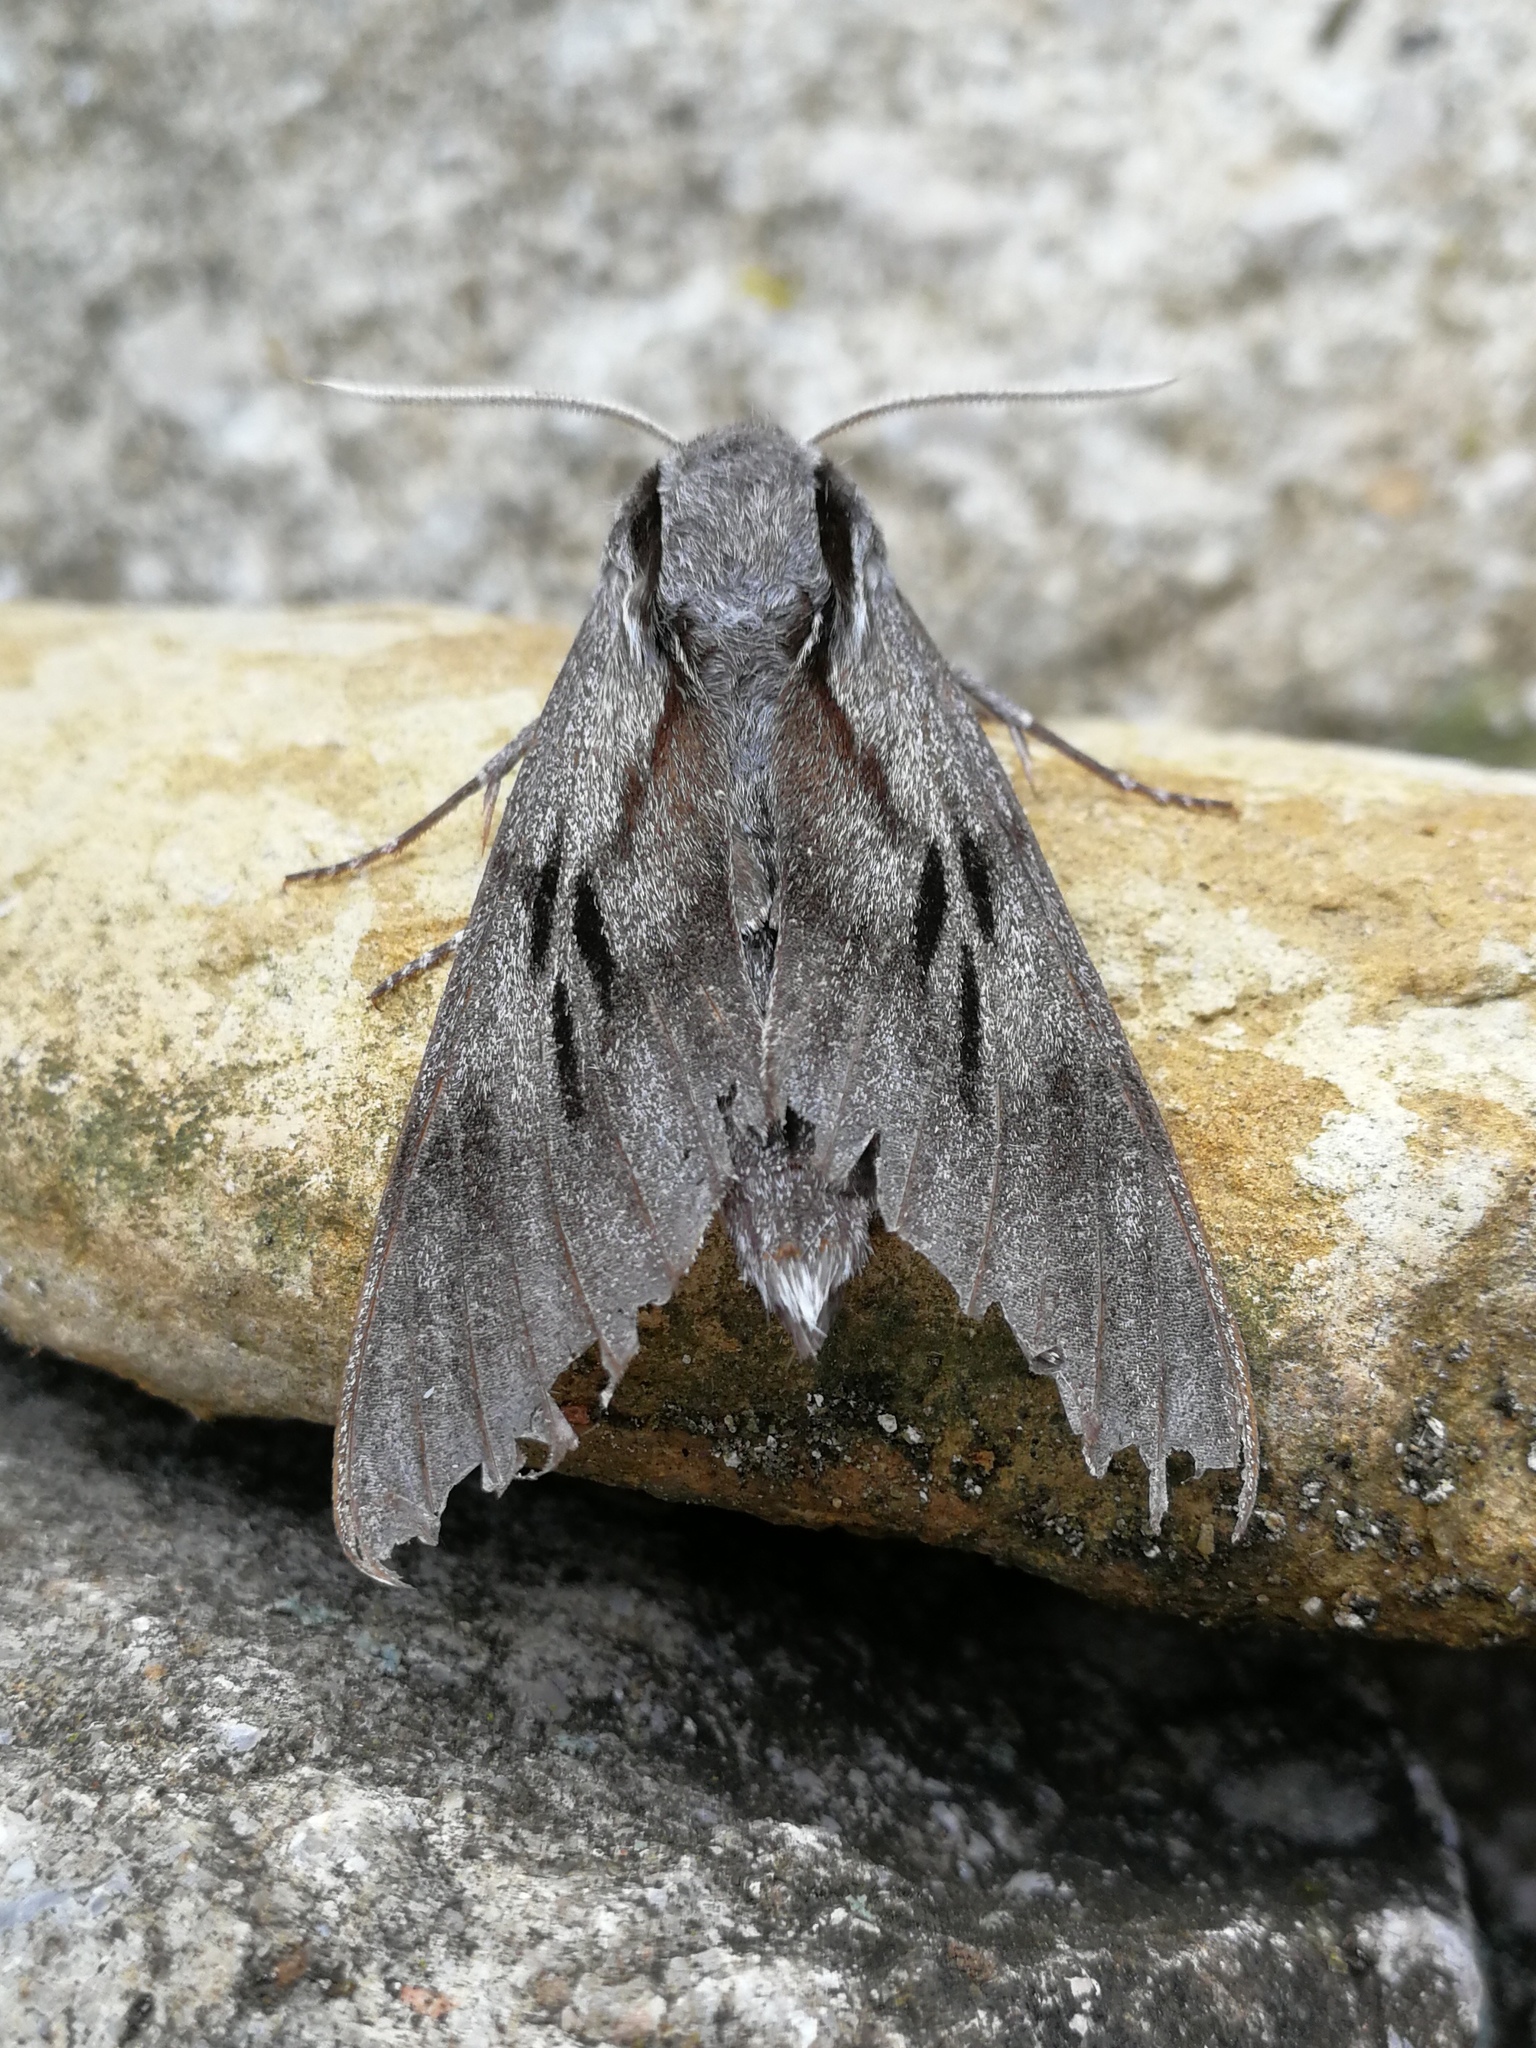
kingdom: Animalia
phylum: Arthropoda
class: Insecta
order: Lepidoptera
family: Sphingidae
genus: Sphinx
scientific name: Sphinx maurorum
